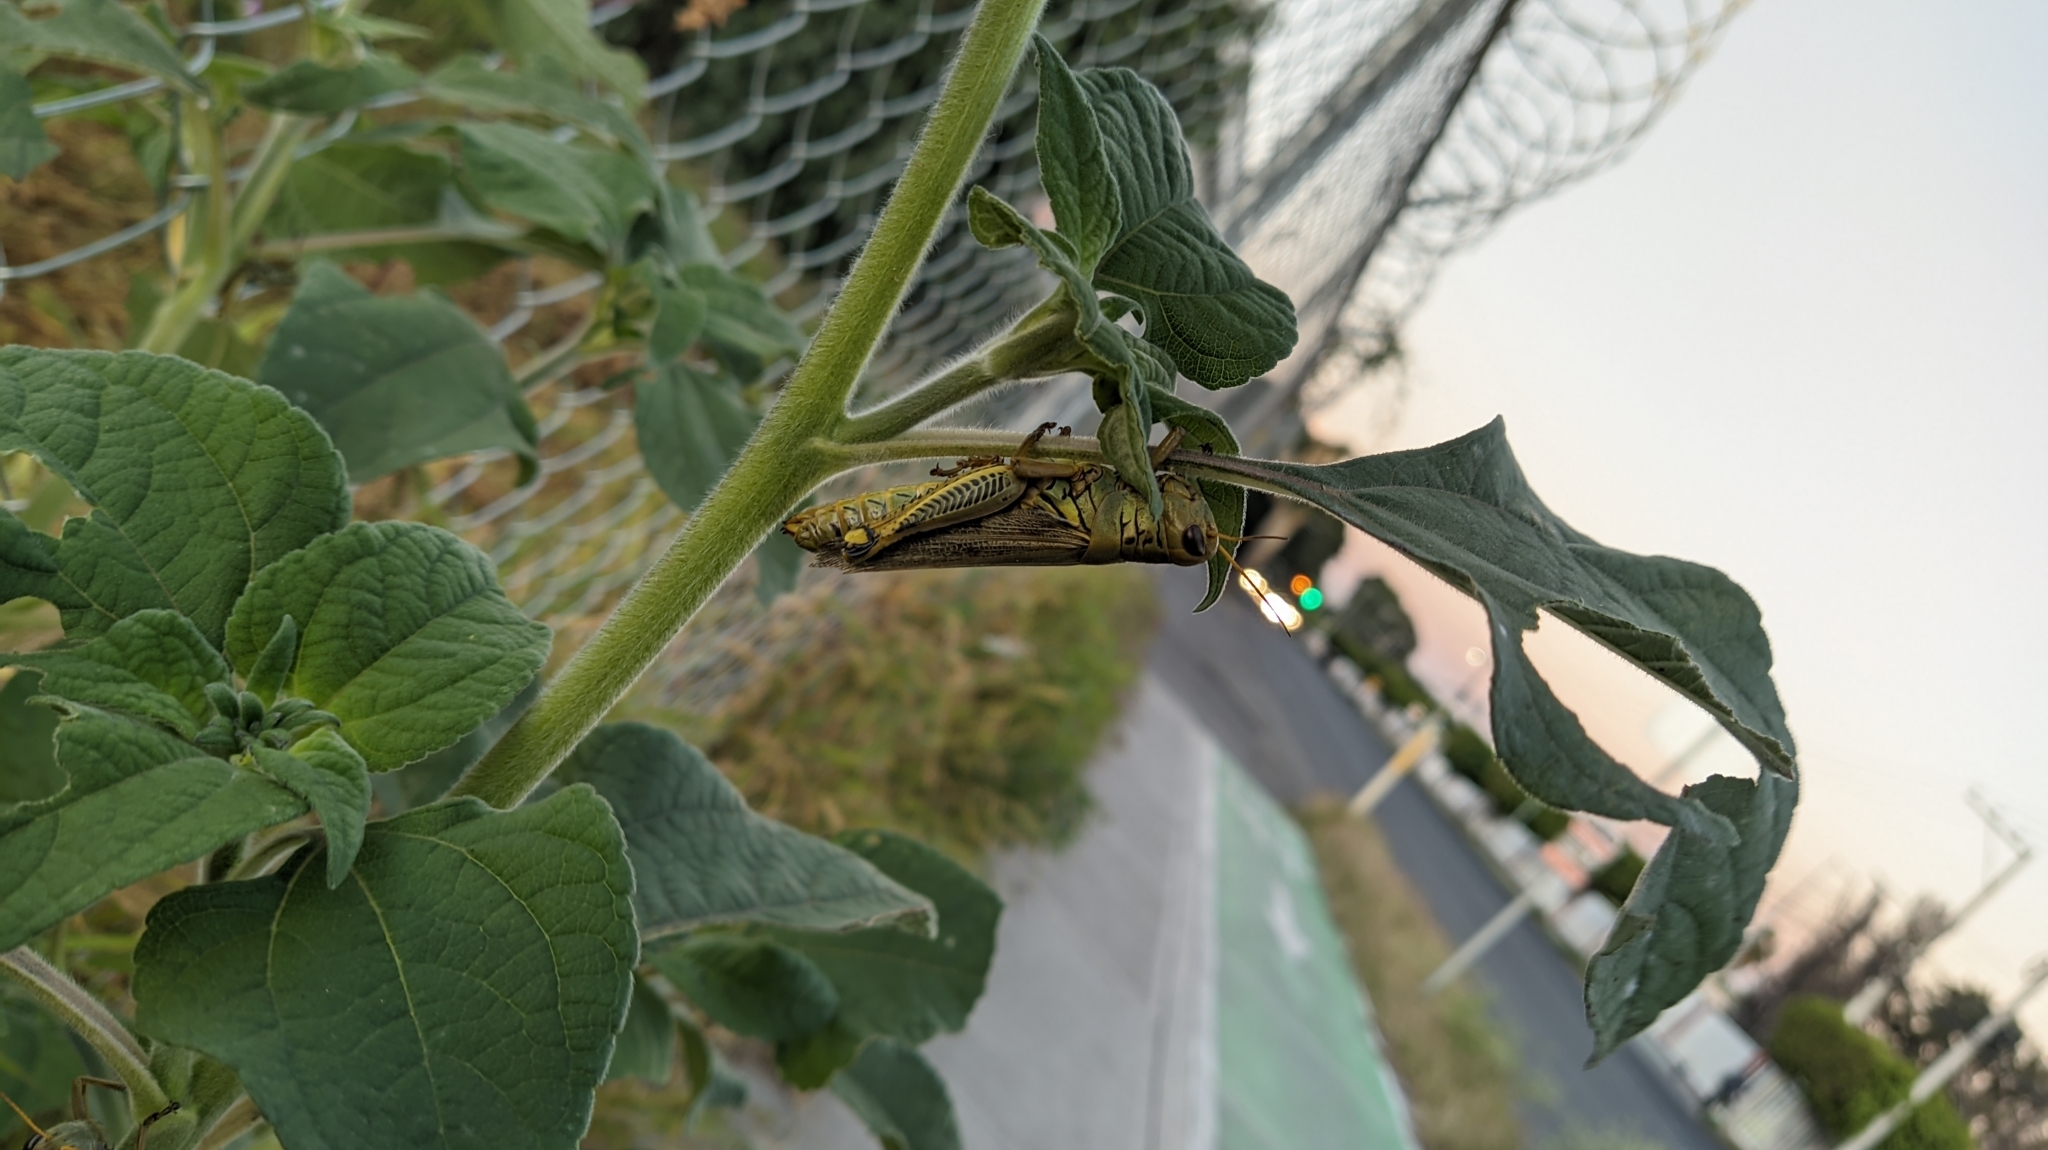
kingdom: Animalia
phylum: Arthropoda
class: Insecta
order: Orthoptera
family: Acrididae
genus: Melanoplus
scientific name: Melanoplus differentialis
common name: Differential grasshopper
